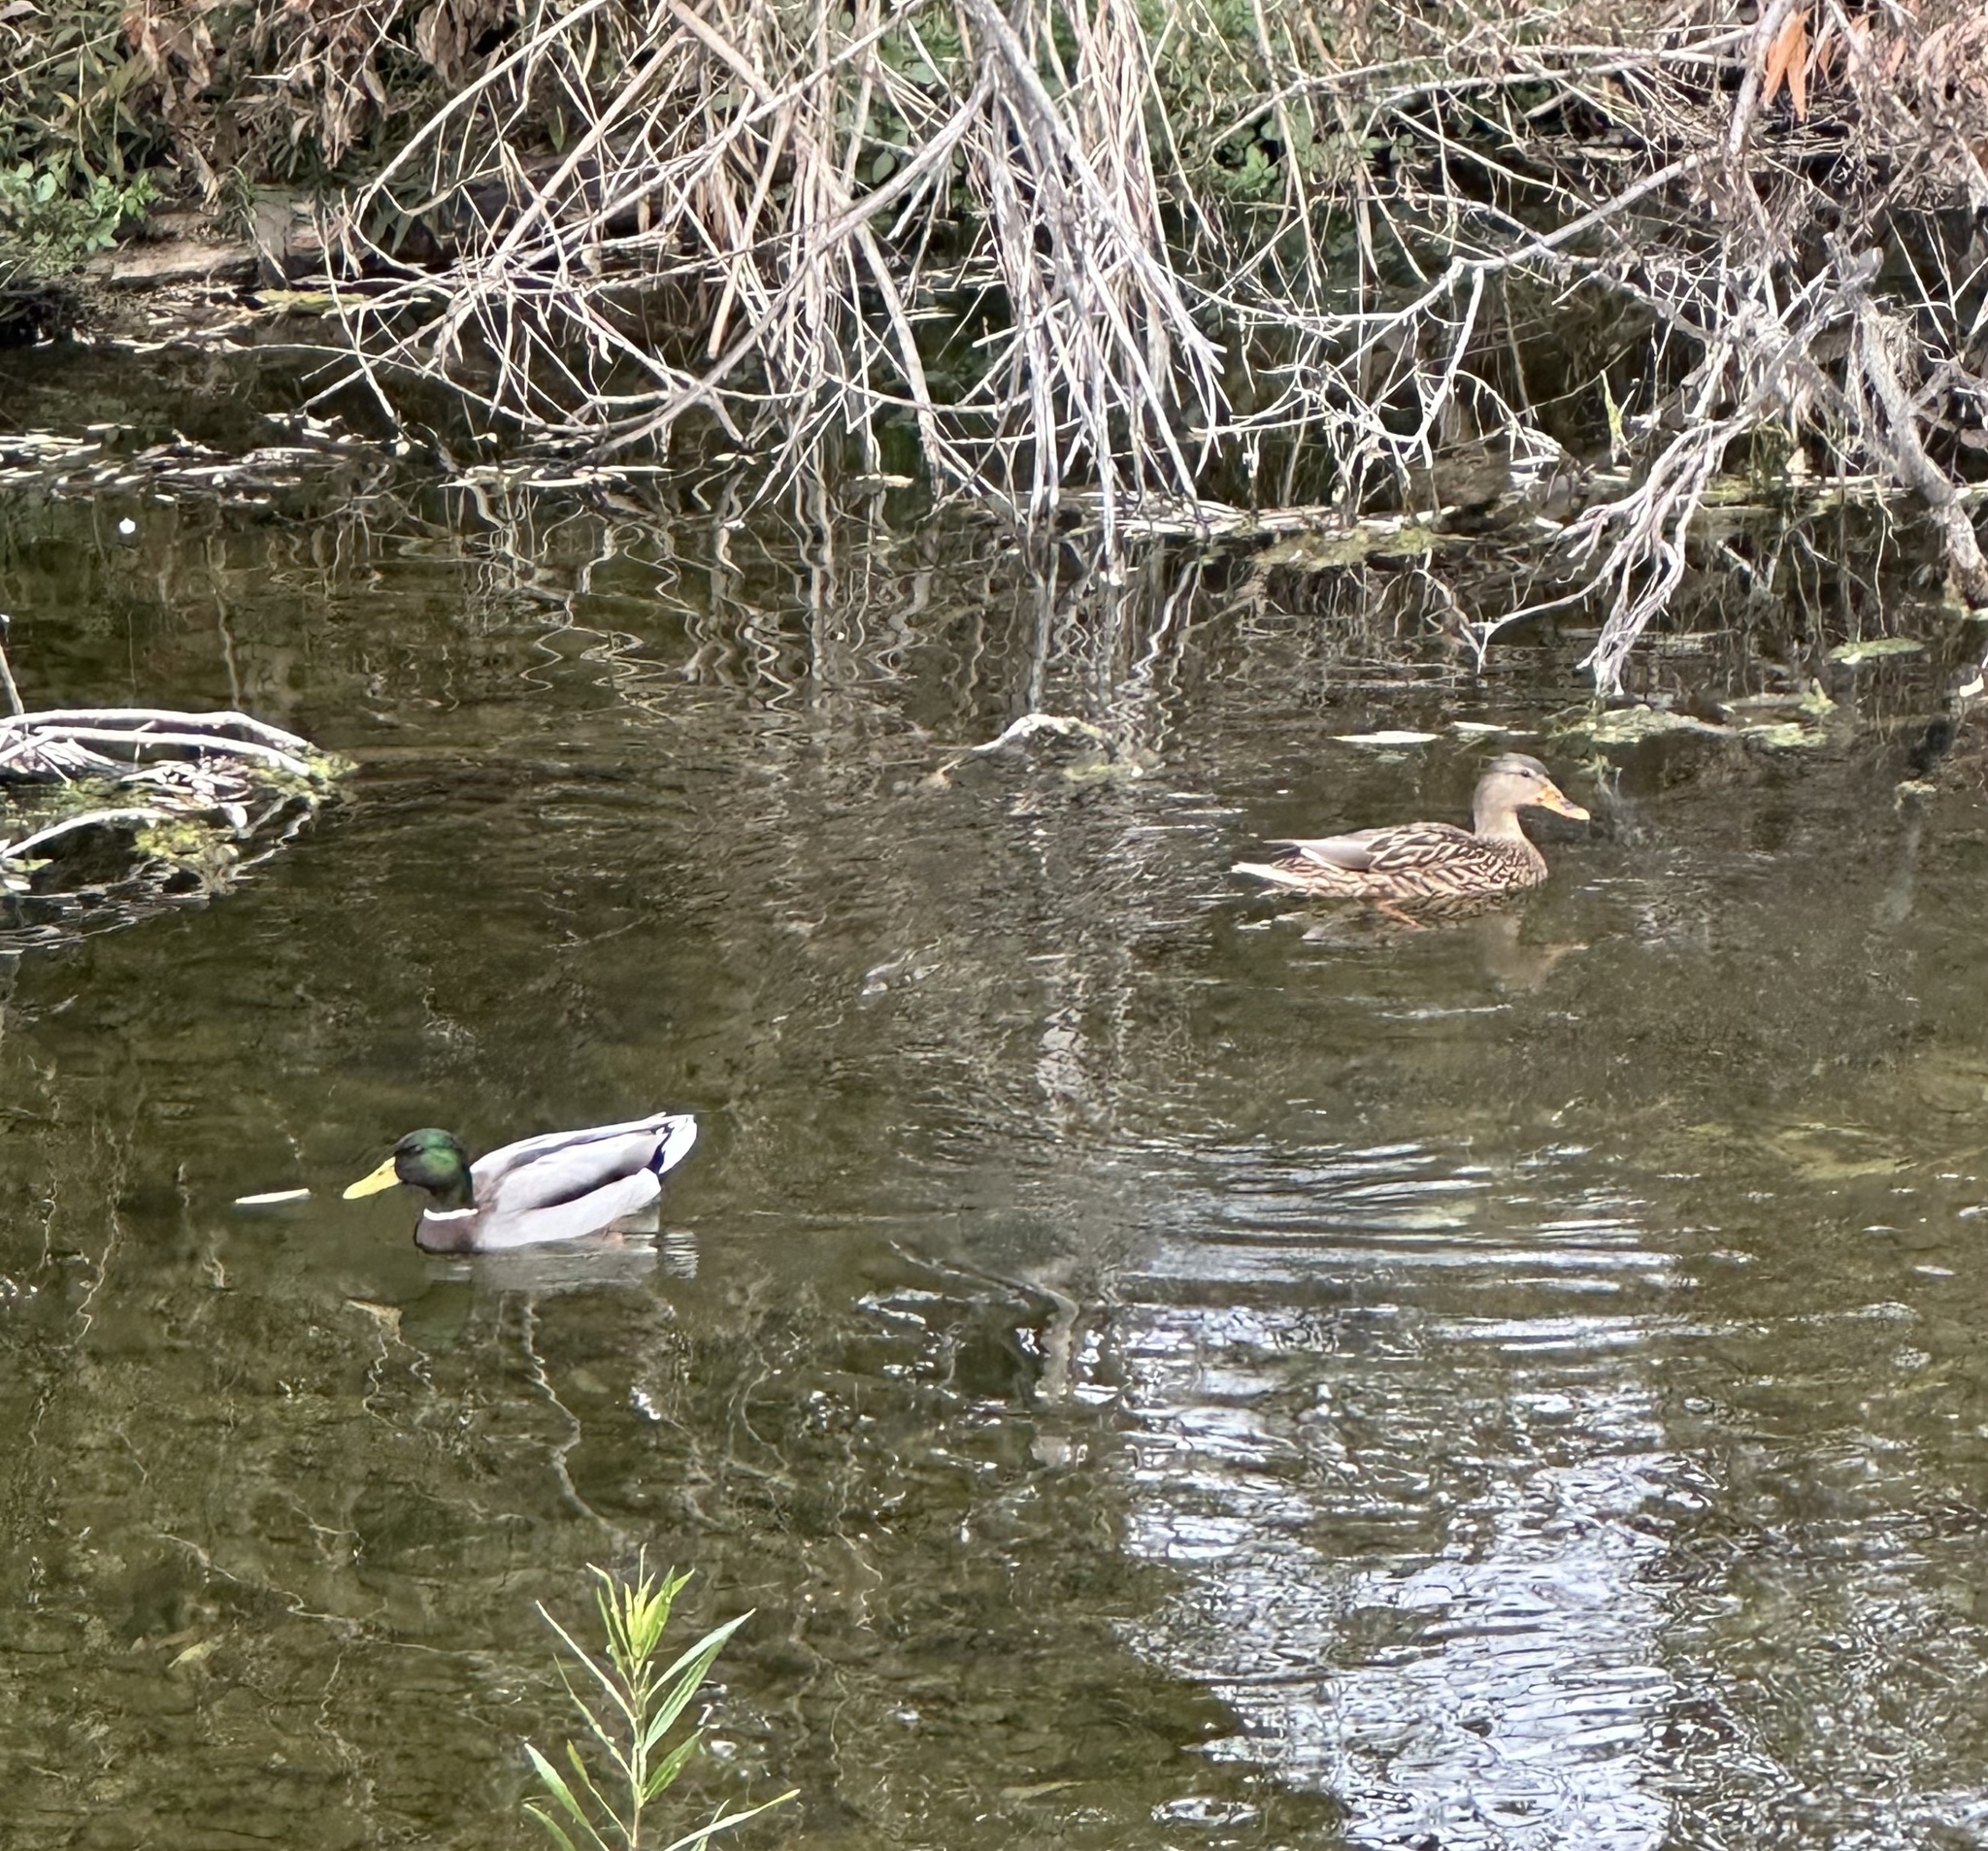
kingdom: Animalia
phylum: Chordata
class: Aves
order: Anseriformes
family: Anatidae
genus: Anas
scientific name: Anas platyrhynchos
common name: Mallard
